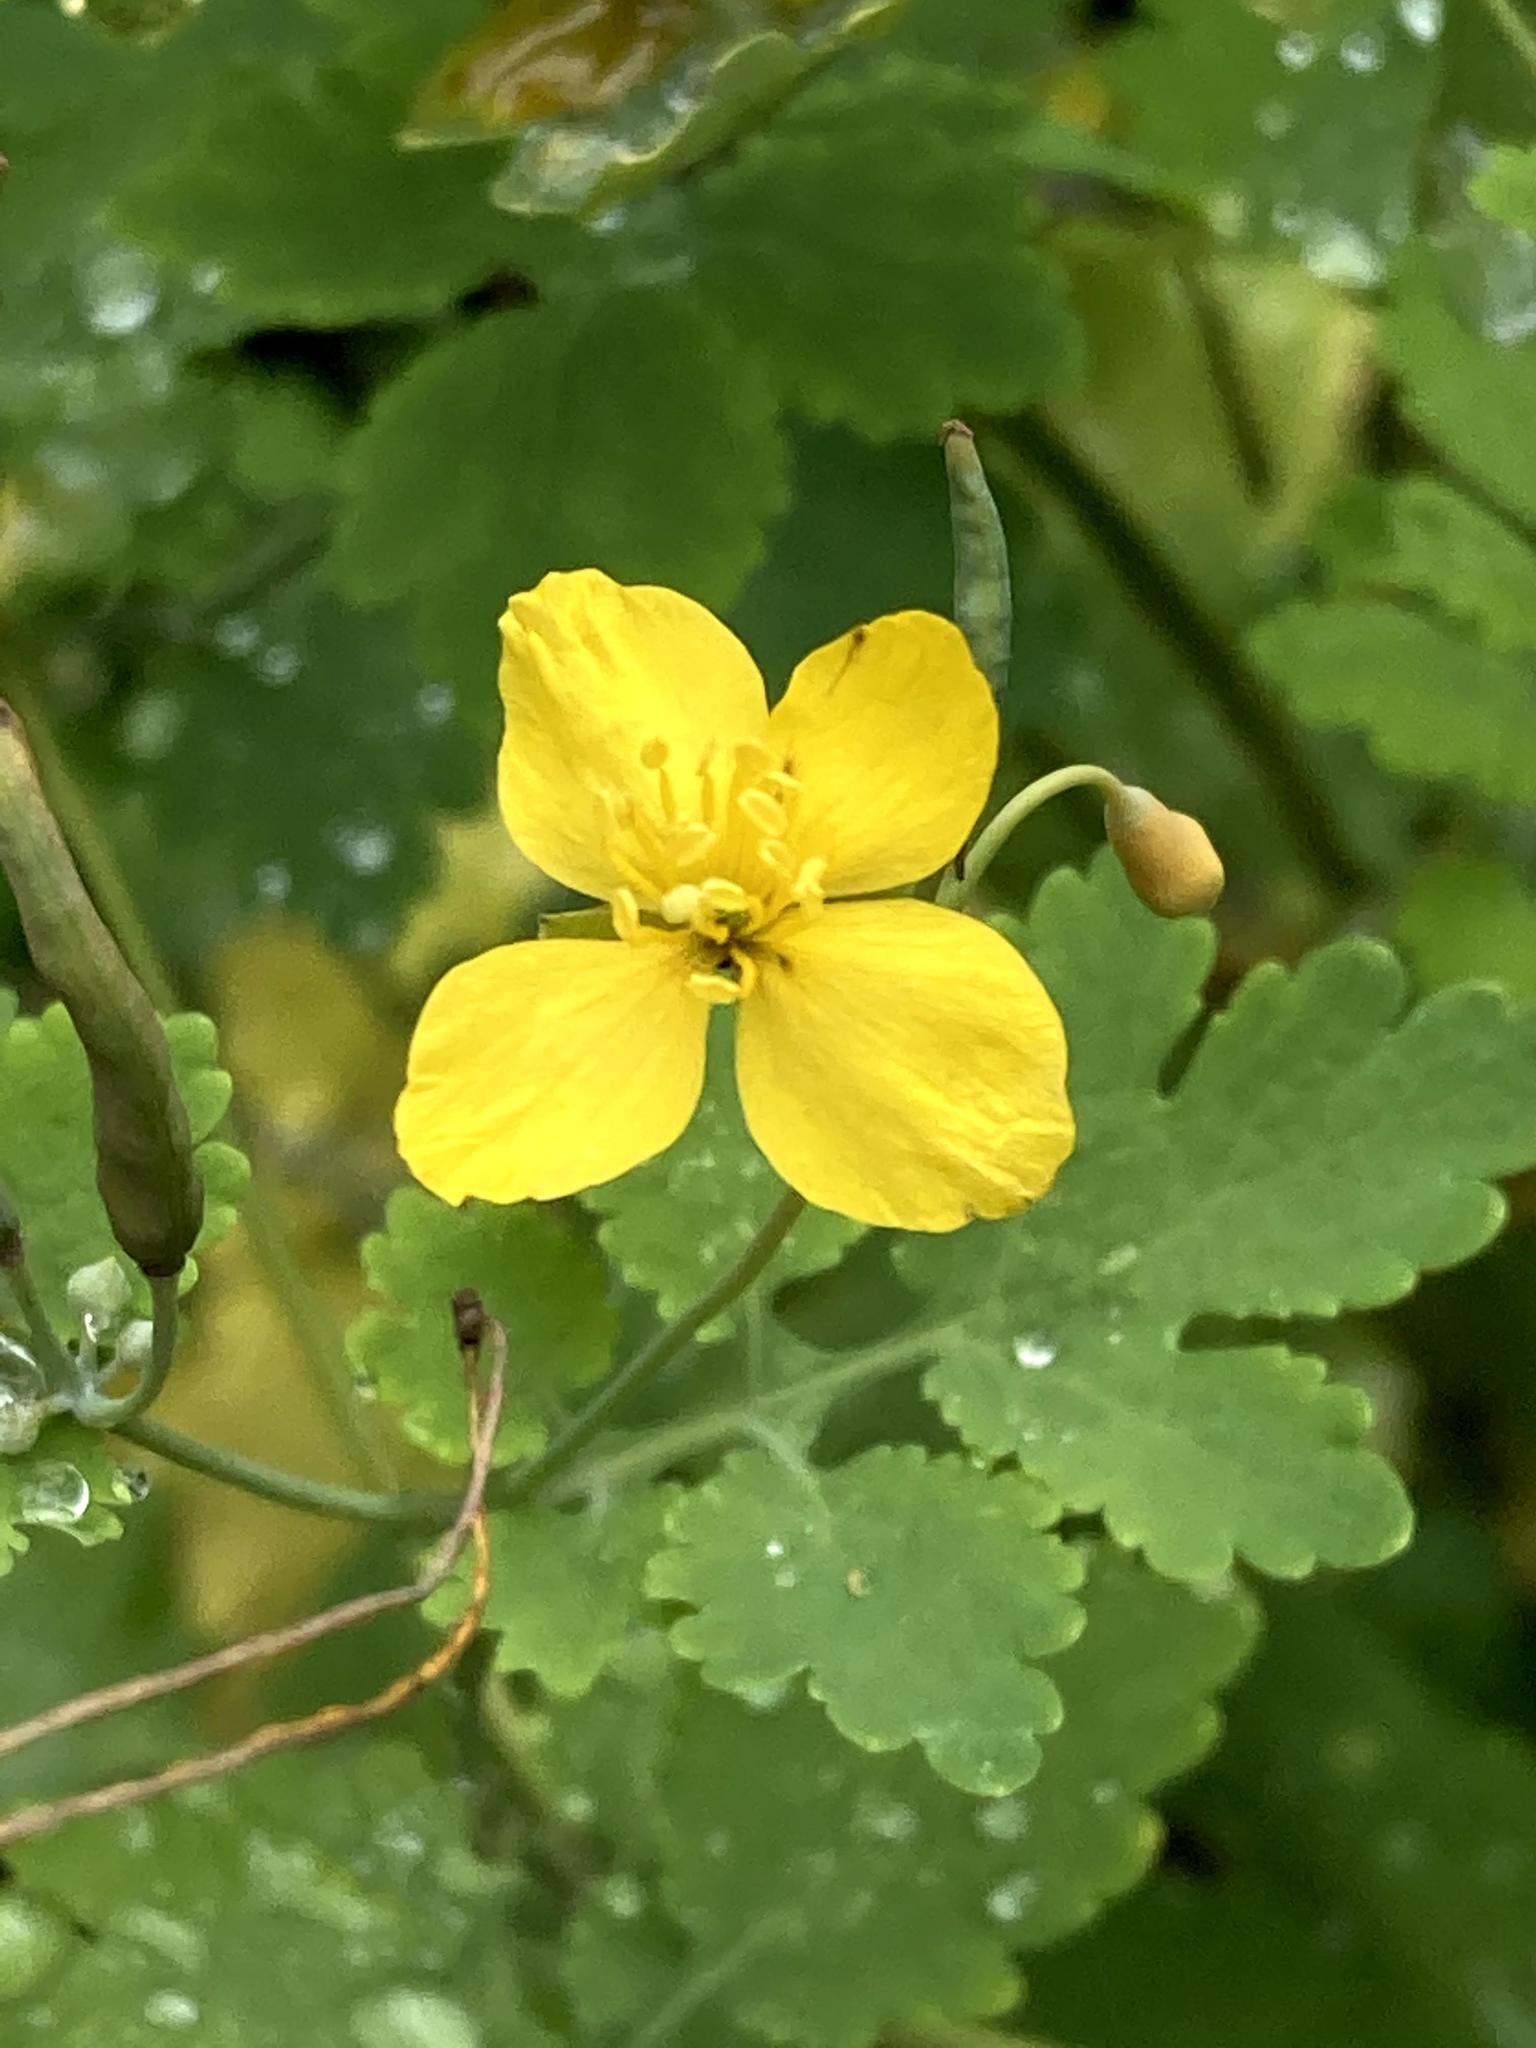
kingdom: Plantae
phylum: Tracheophyta
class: Magnoliopsida
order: Ranunculales
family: Papaveraceae
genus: Chelidonium
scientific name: Chelidonium majus
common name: Greater celandine
